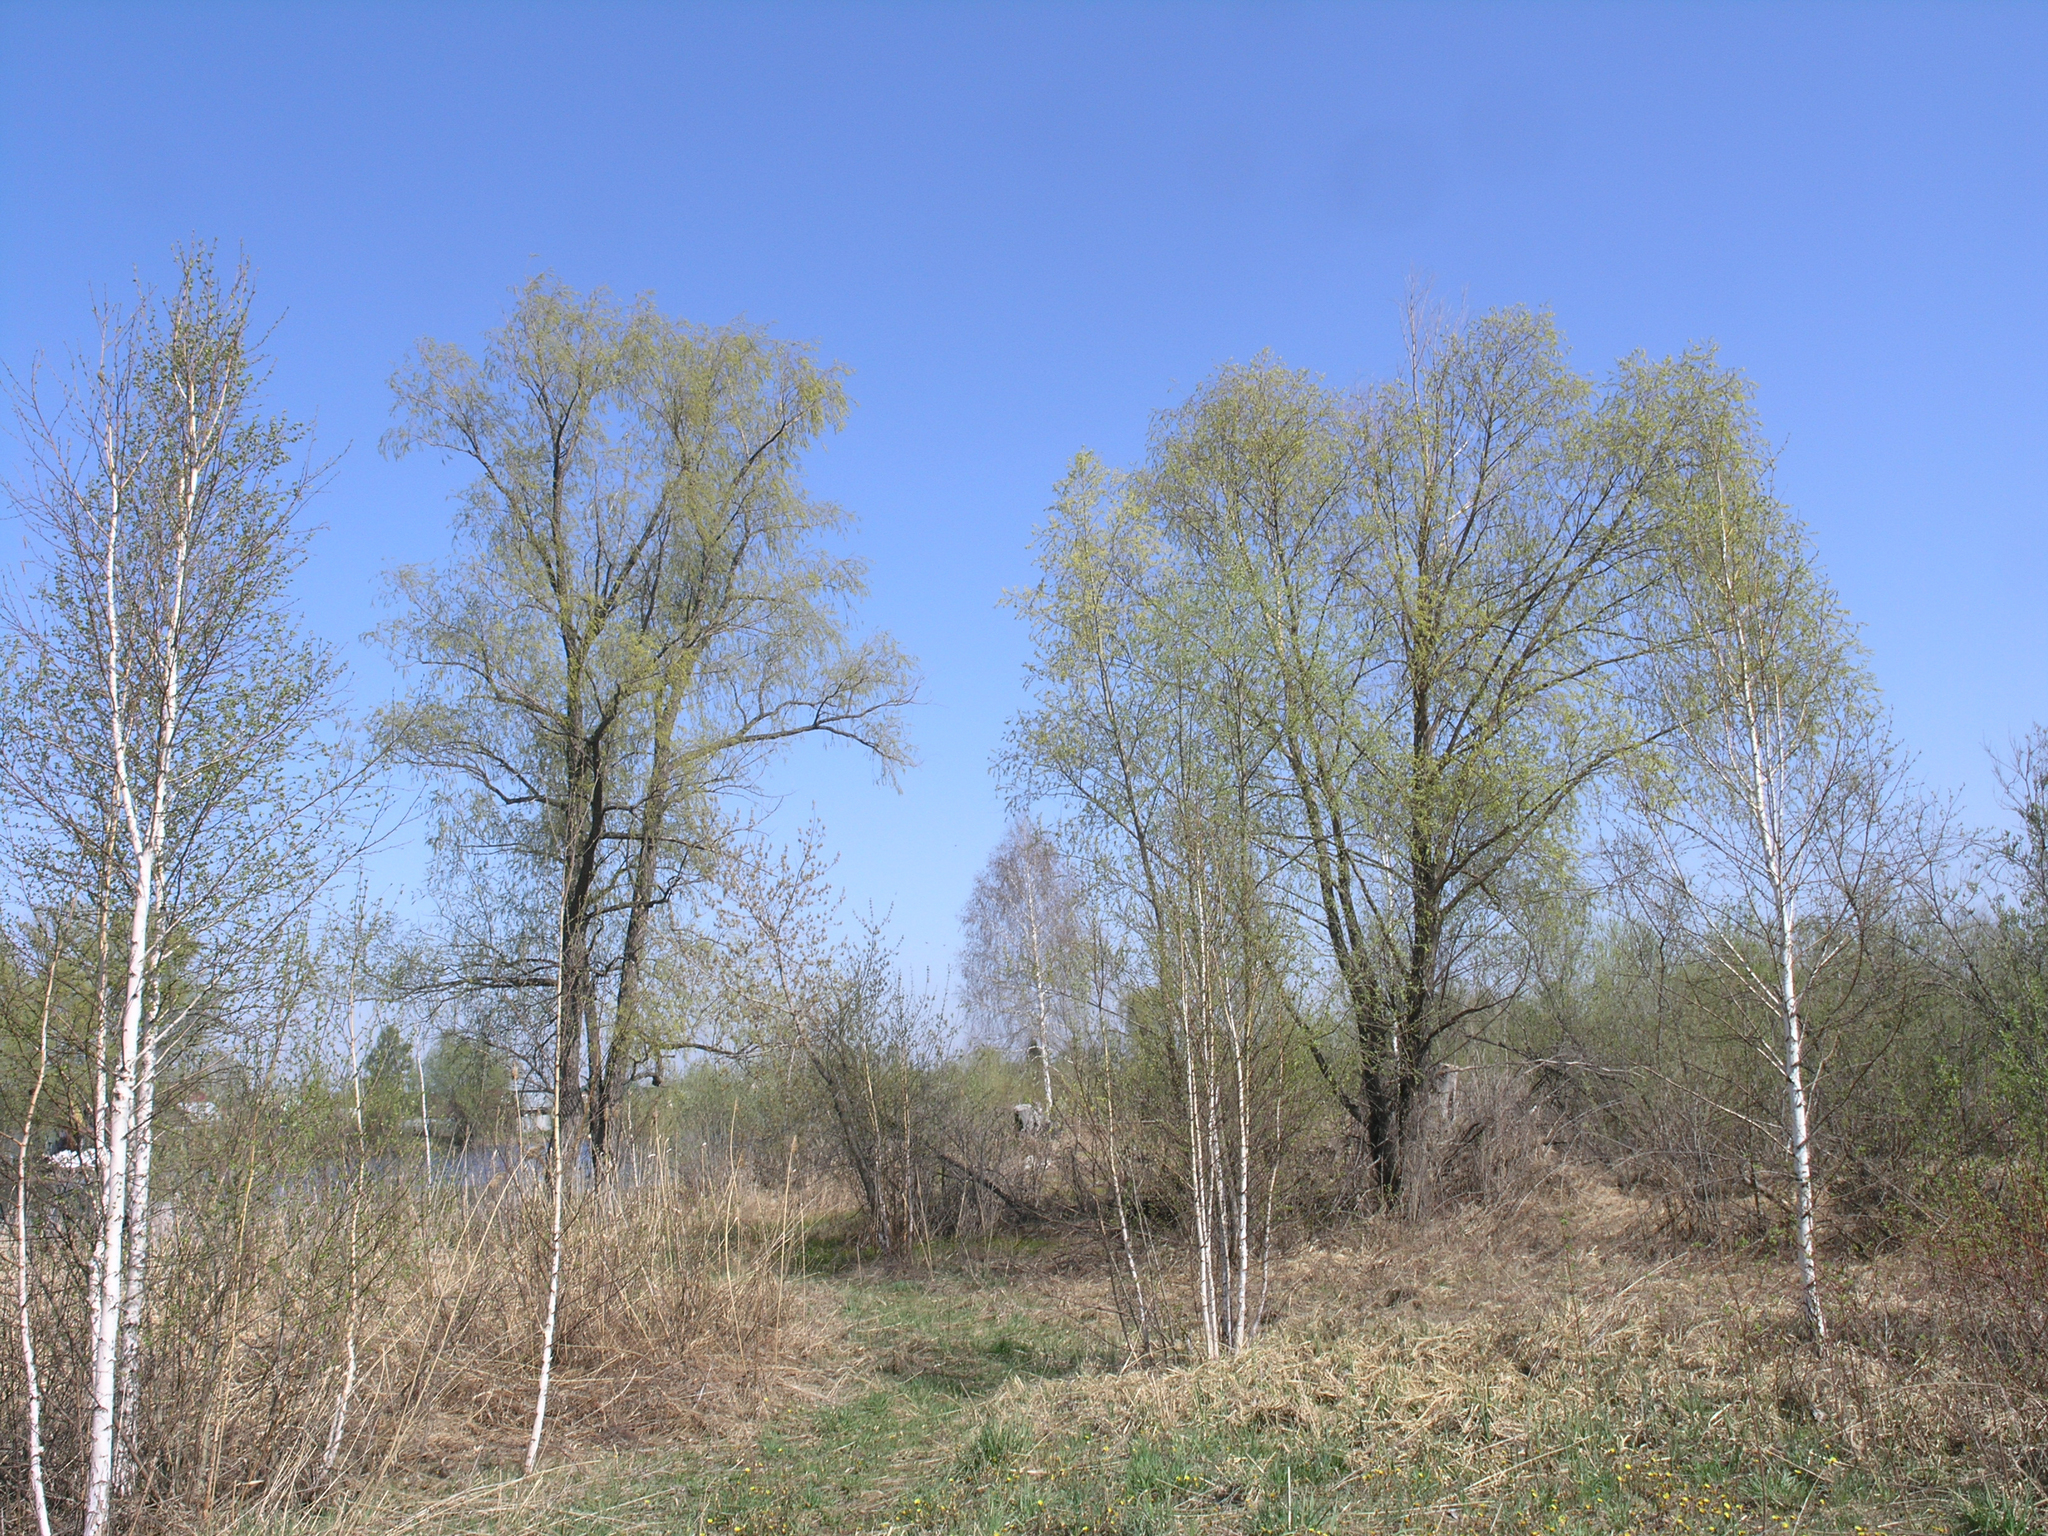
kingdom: Plantae
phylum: Tracheophyta
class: Magnoliopsida
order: Malpighiales
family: Salicaceae
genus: Salix
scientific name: Salix alba
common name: White willow
